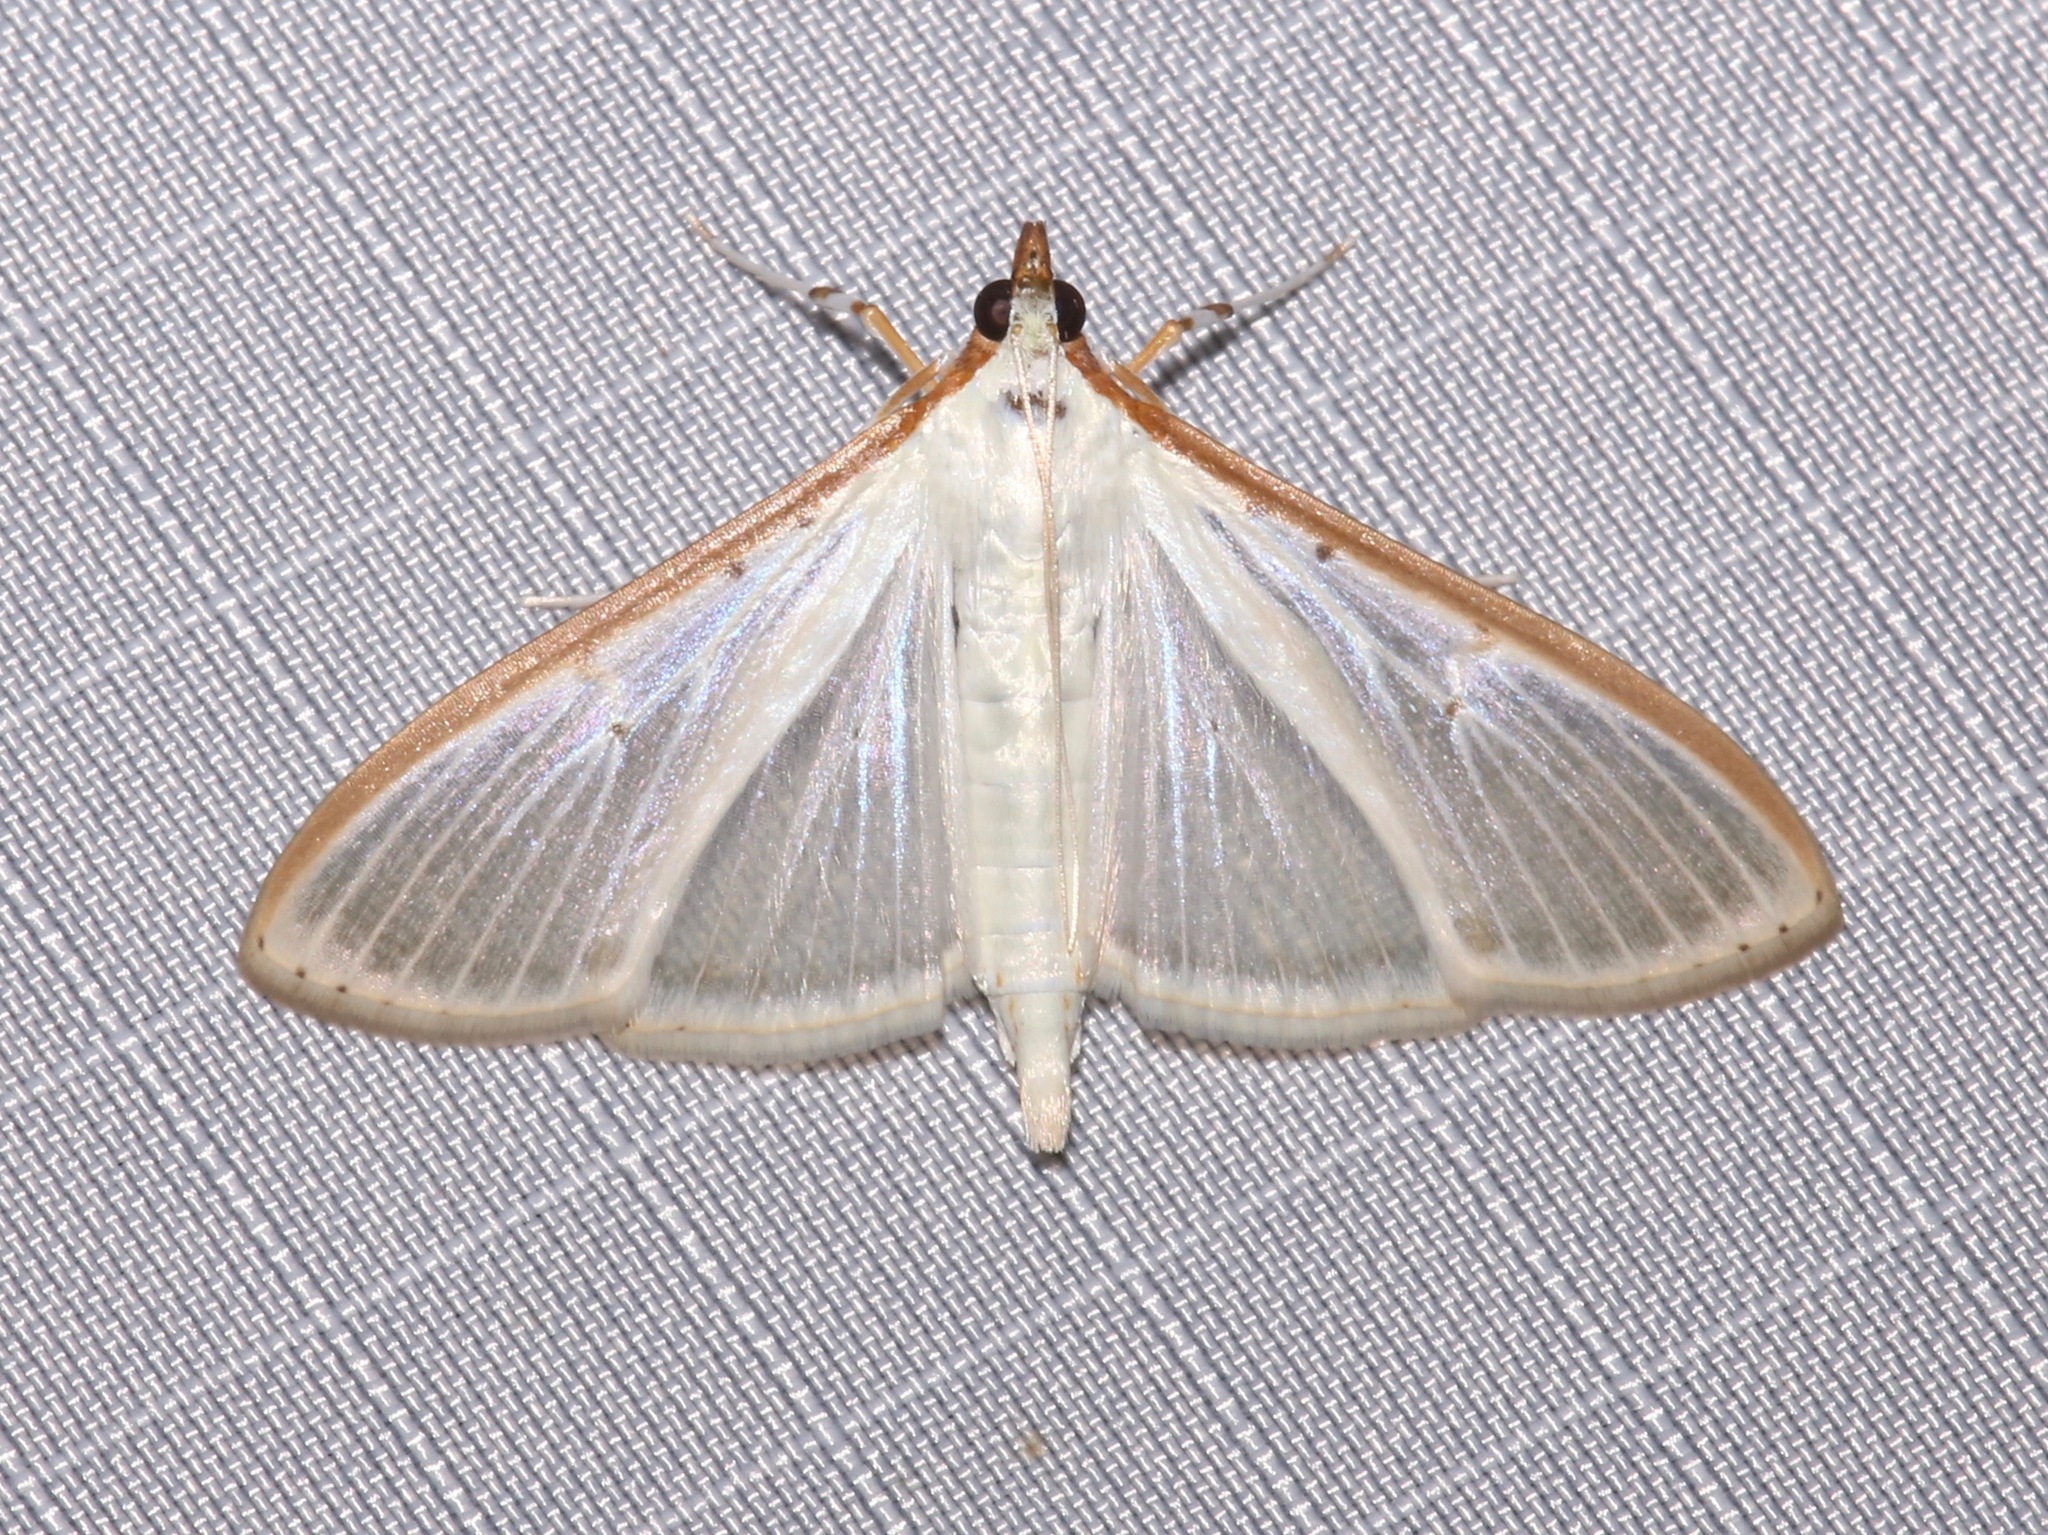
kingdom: Animalia
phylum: Arthropoda
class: Insecta
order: Lepidoptera
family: Crambidae
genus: Palpita
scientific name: Palpita quadristigmalis
